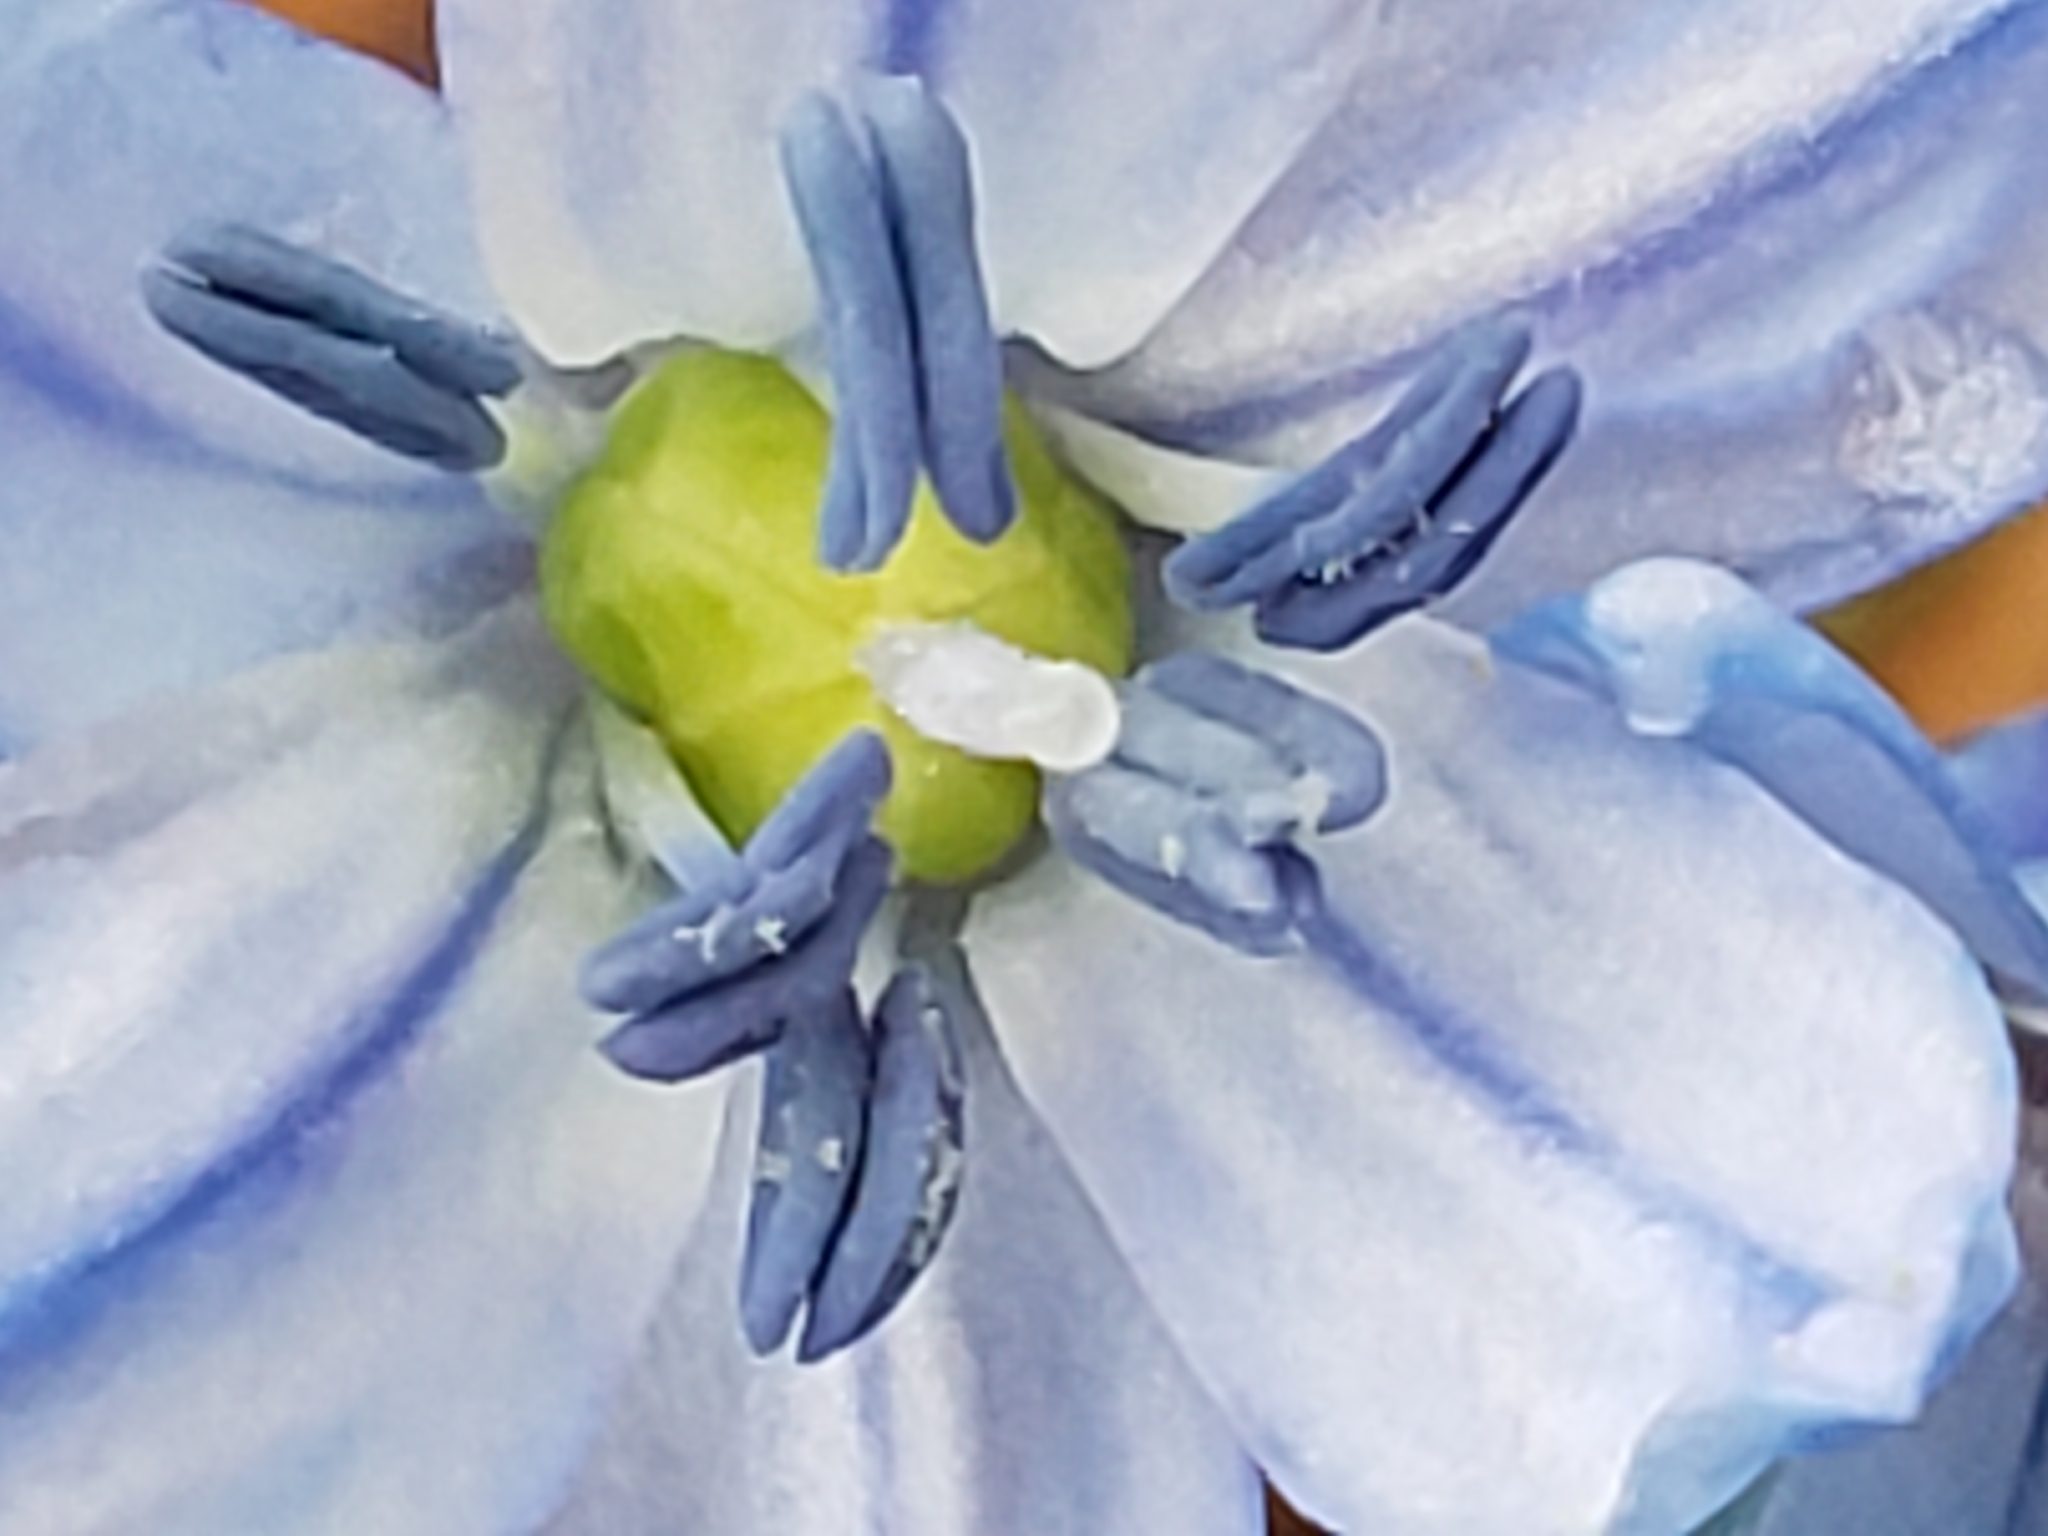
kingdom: Plantae
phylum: Tracheophyta
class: Liliopsida
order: Asparagales
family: Asparagaceae
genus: Scilla
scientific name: Scilla siberica
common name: Siberian squill
